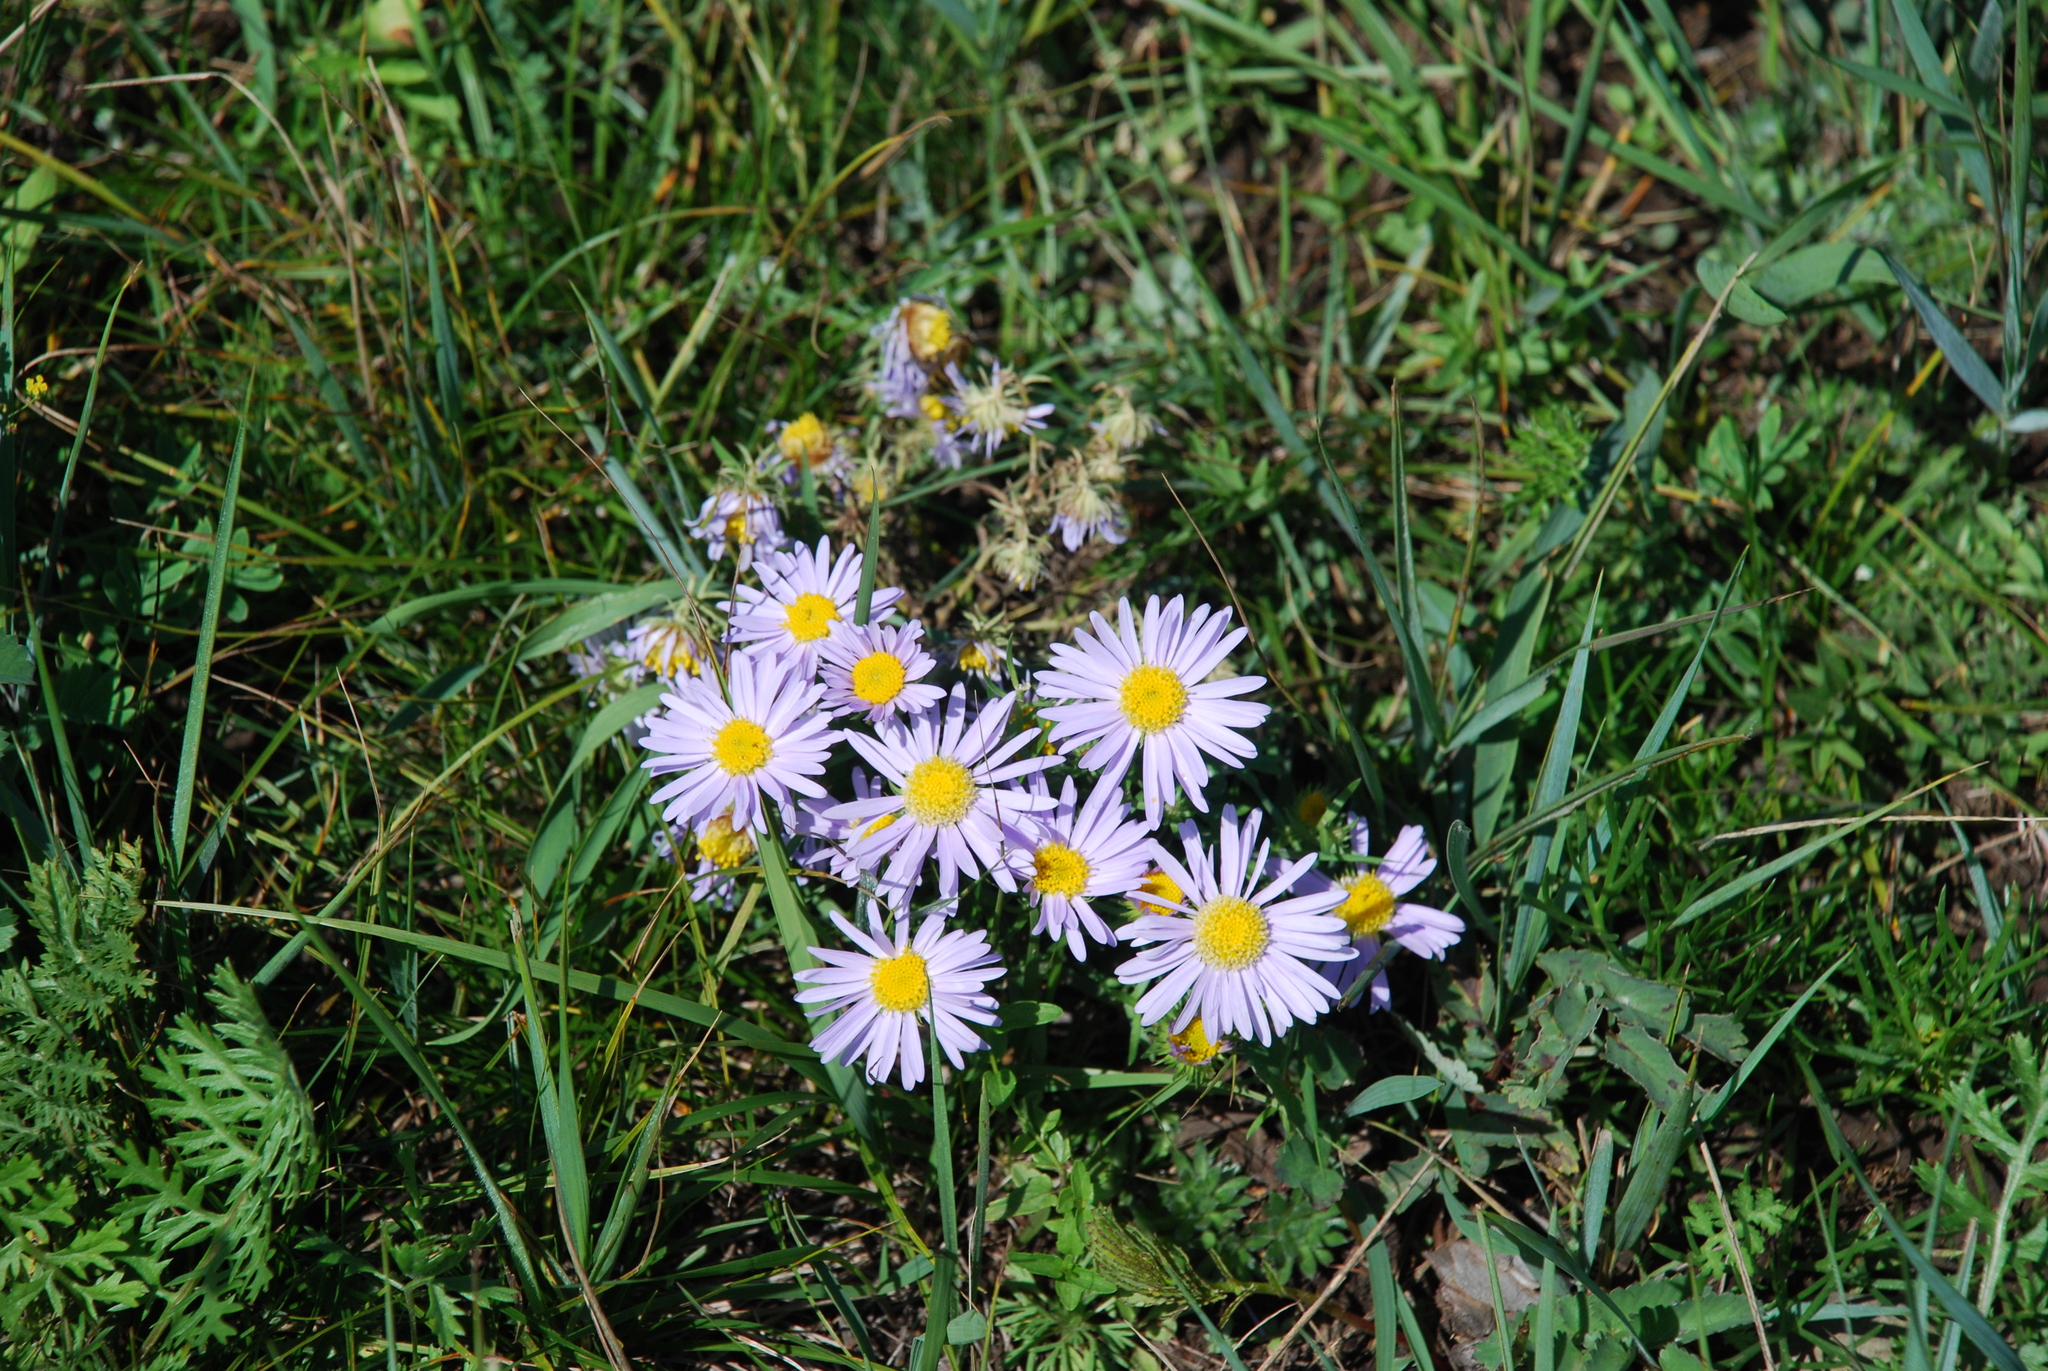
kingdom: Plantae
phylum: Tracheophyta
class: Magnoliopsida
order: Asterales
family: Asteraceae
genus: Heteropappus
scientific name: Heteropappus altaicus
